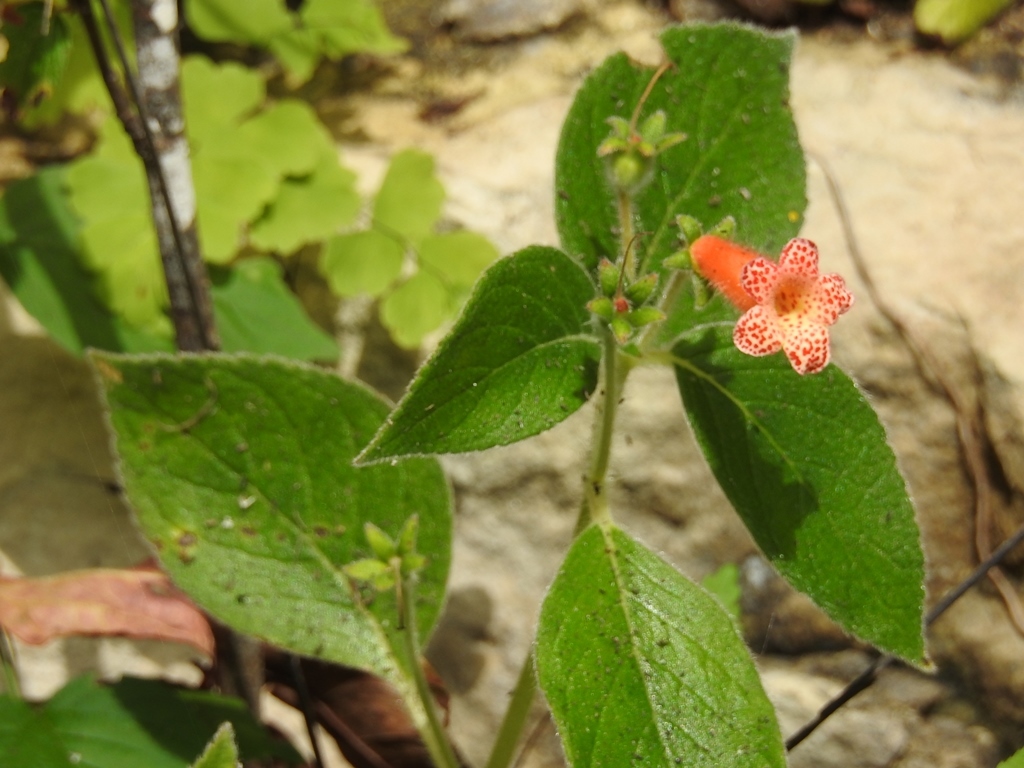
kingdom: Plantae
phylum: Tracheophyta
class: Magnoliopsida
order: Lamiales
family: Gesneriaceae
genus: Kohleria
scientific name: Kohleria rugata
